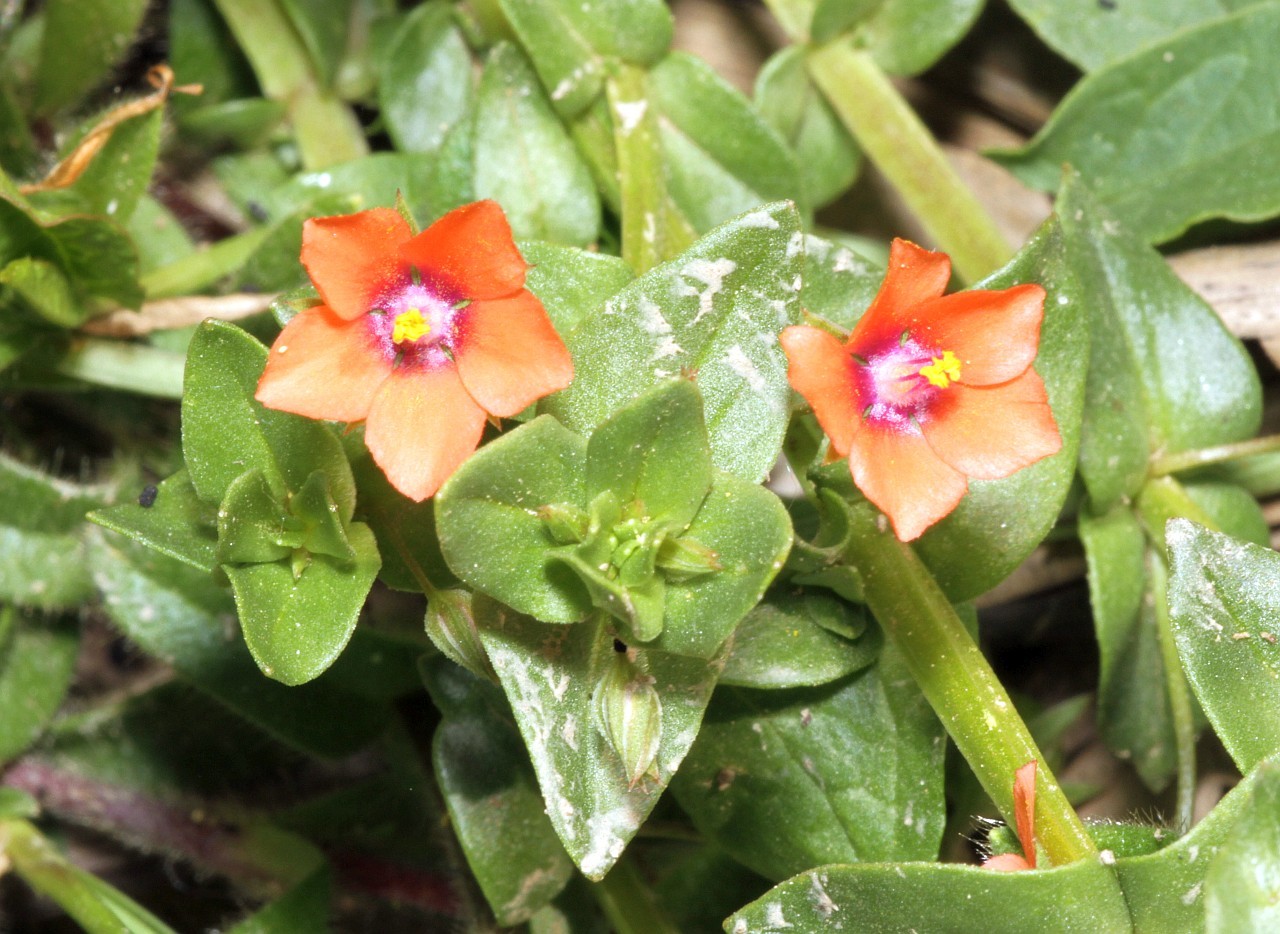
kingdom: Plantae
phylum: Tracheophyta
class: Magnoliopsida
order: Ericales
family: Primulaceae
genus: Lysimachia
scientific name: Lysimachia arvensis
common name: Scarlet pimpernel
